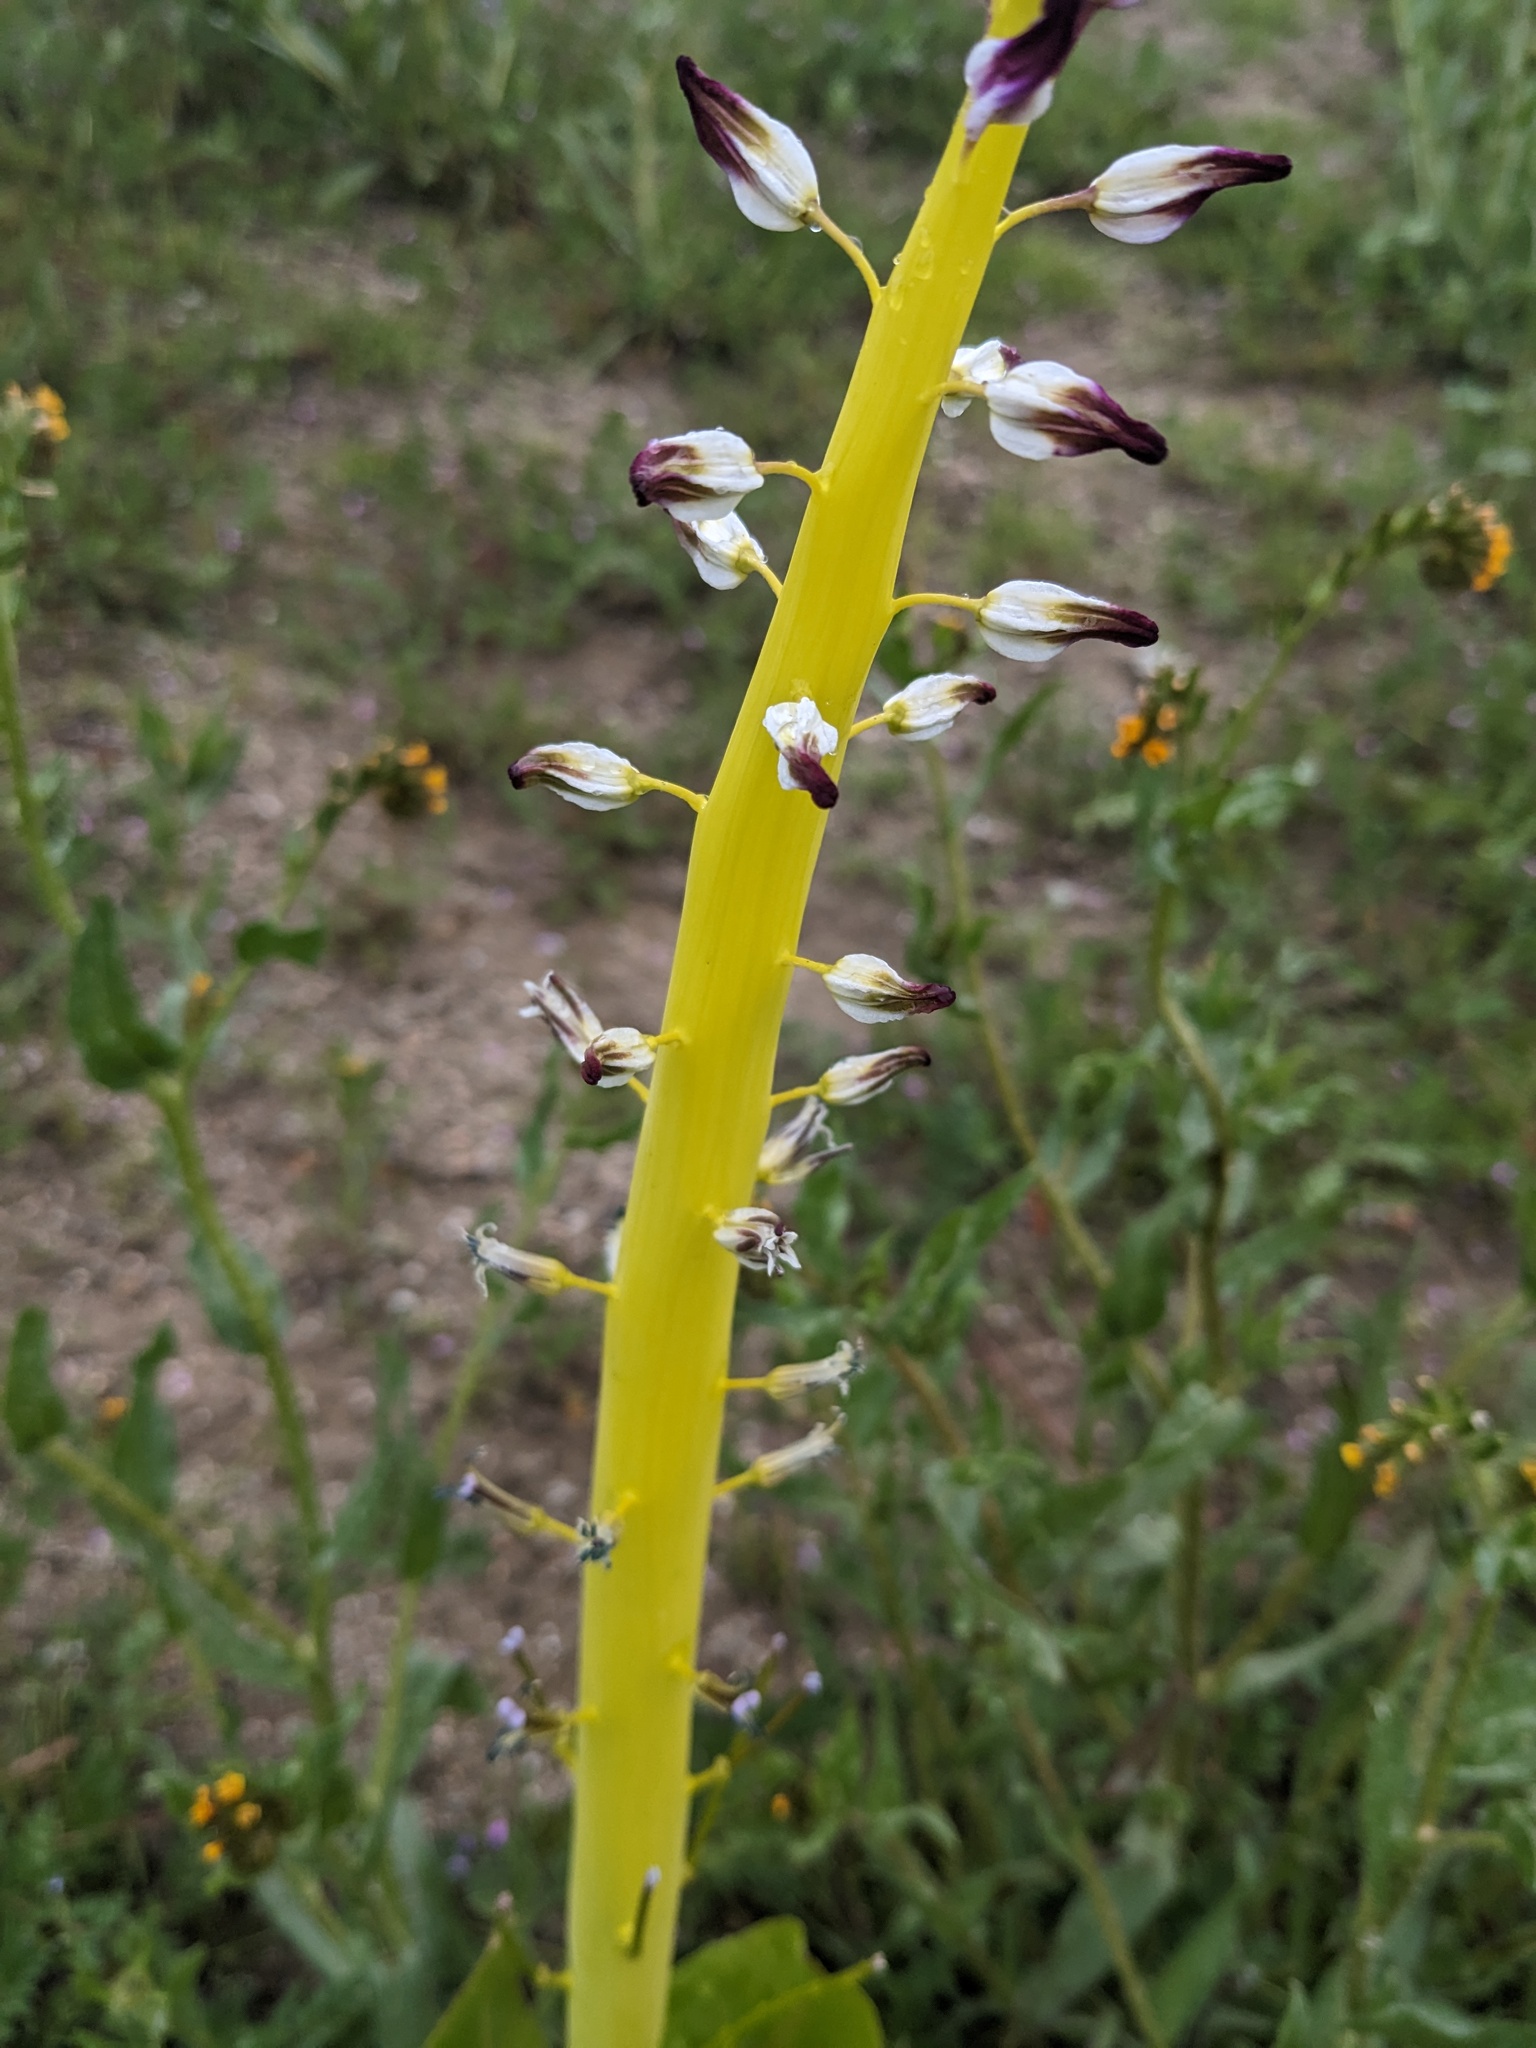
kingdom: Plantae
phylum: Tracheophyta
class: Magnoliopsida
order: Brassicales
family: Brassicaceae
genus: Streptanthus
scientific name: Streptanthus inflatus
